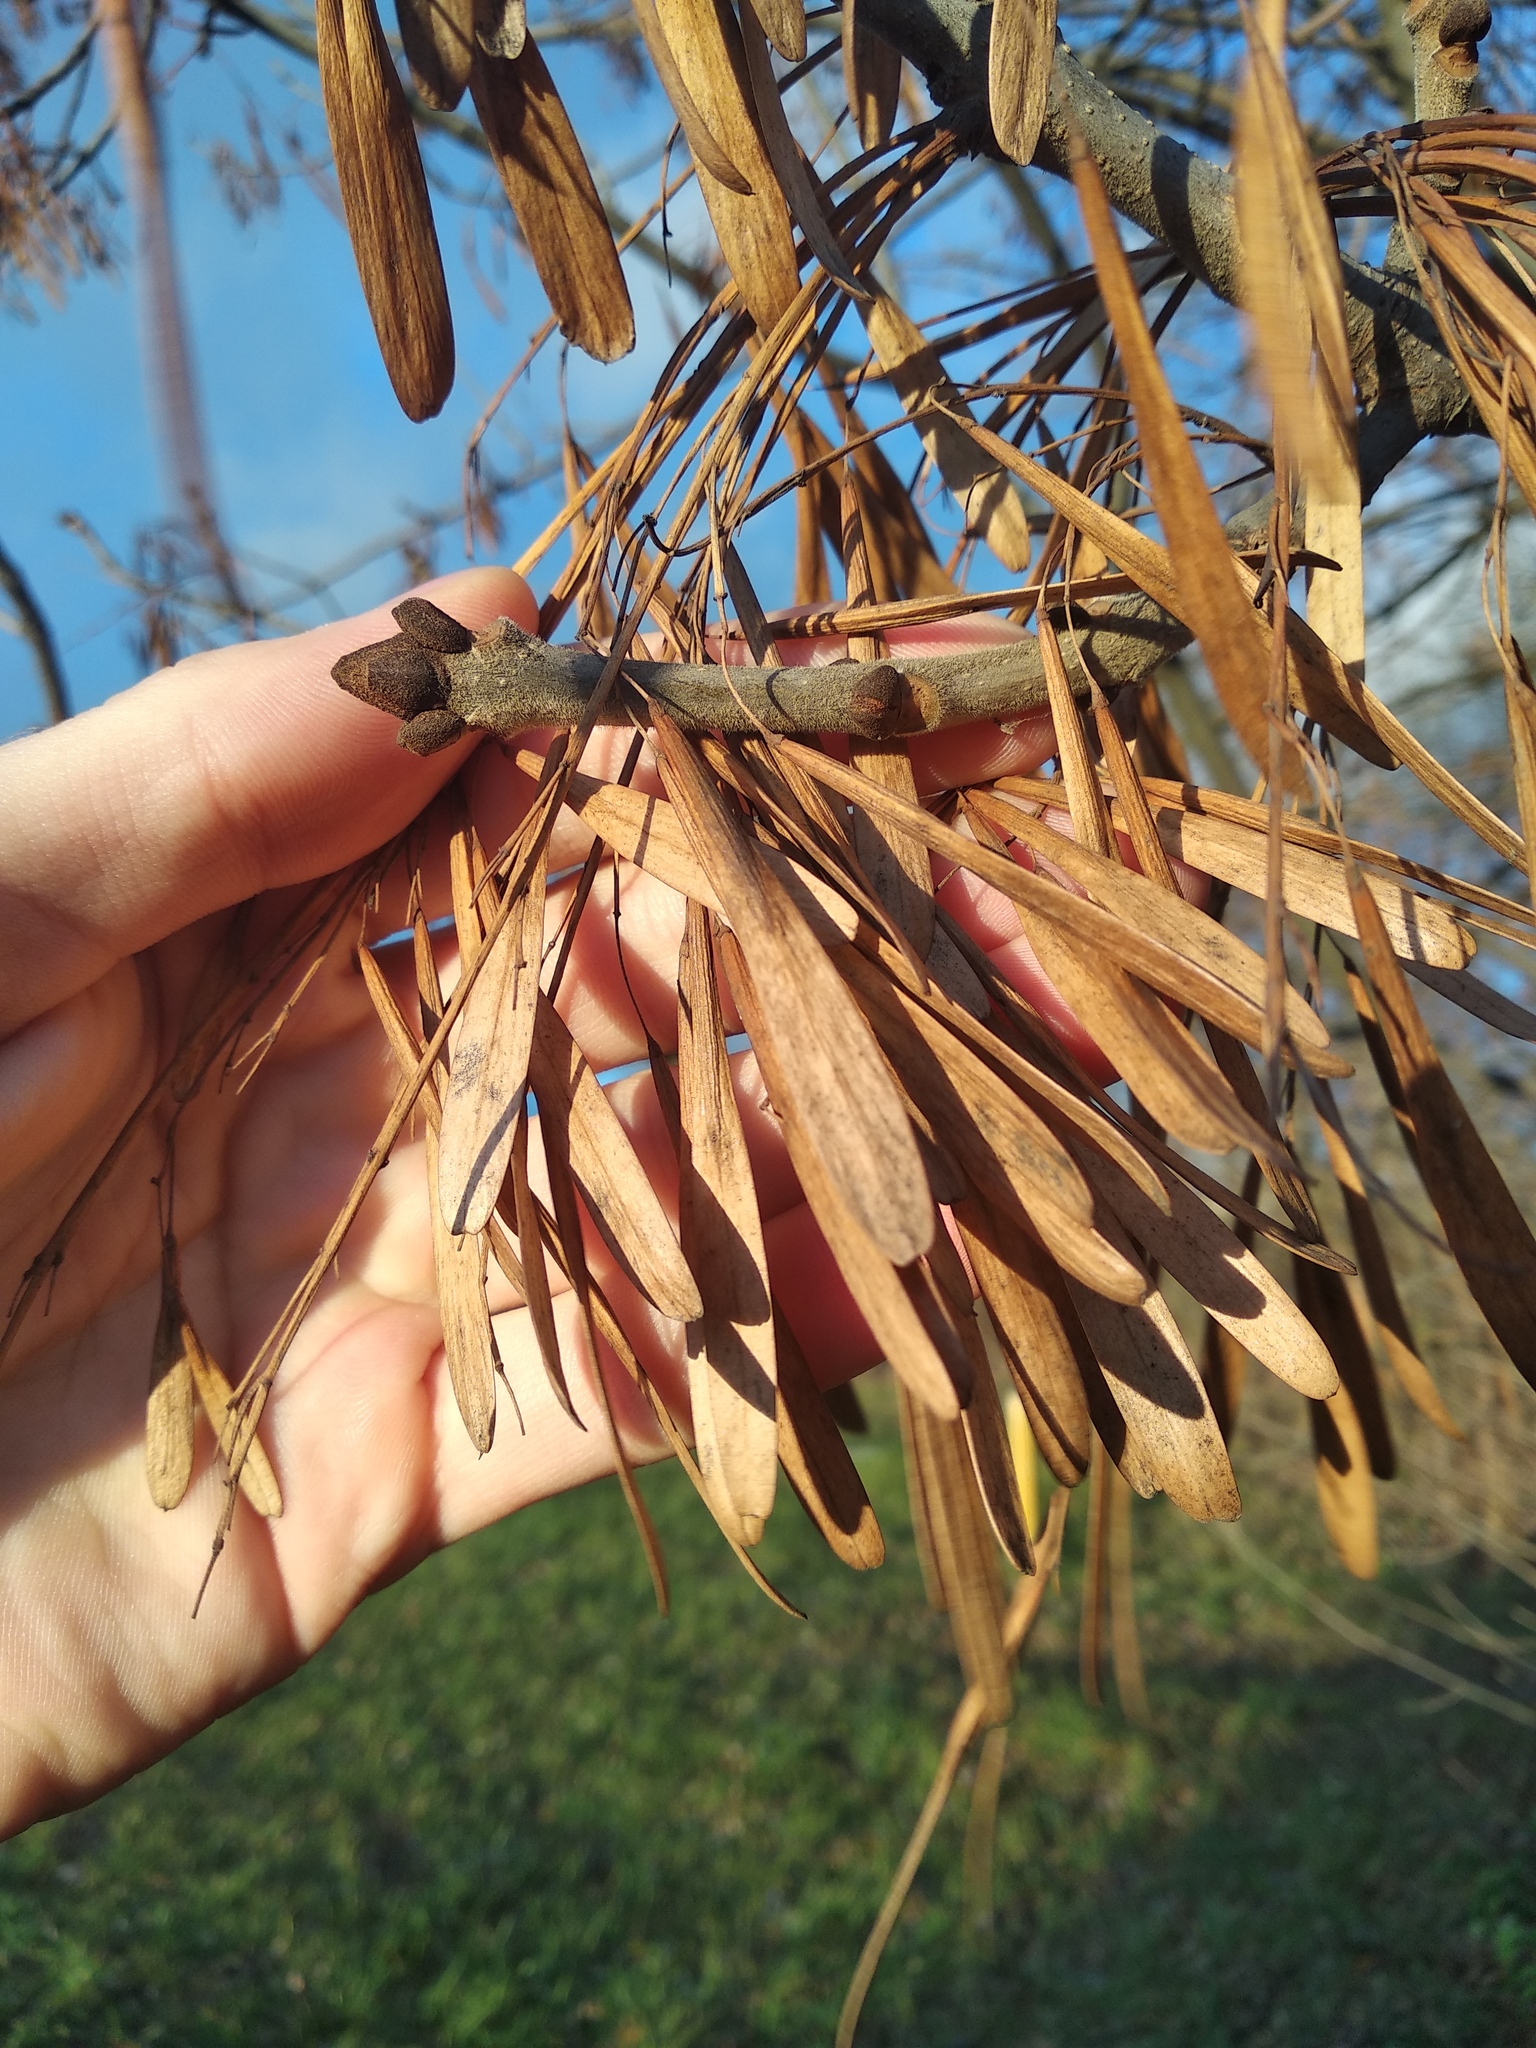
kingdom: Plantae
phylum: Tracheophyta
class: Magnoliopsida
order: Lamiales
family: Oleaceae
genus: Fraxinus
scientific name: Fraxinus pennsylvanica
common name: Green ash
